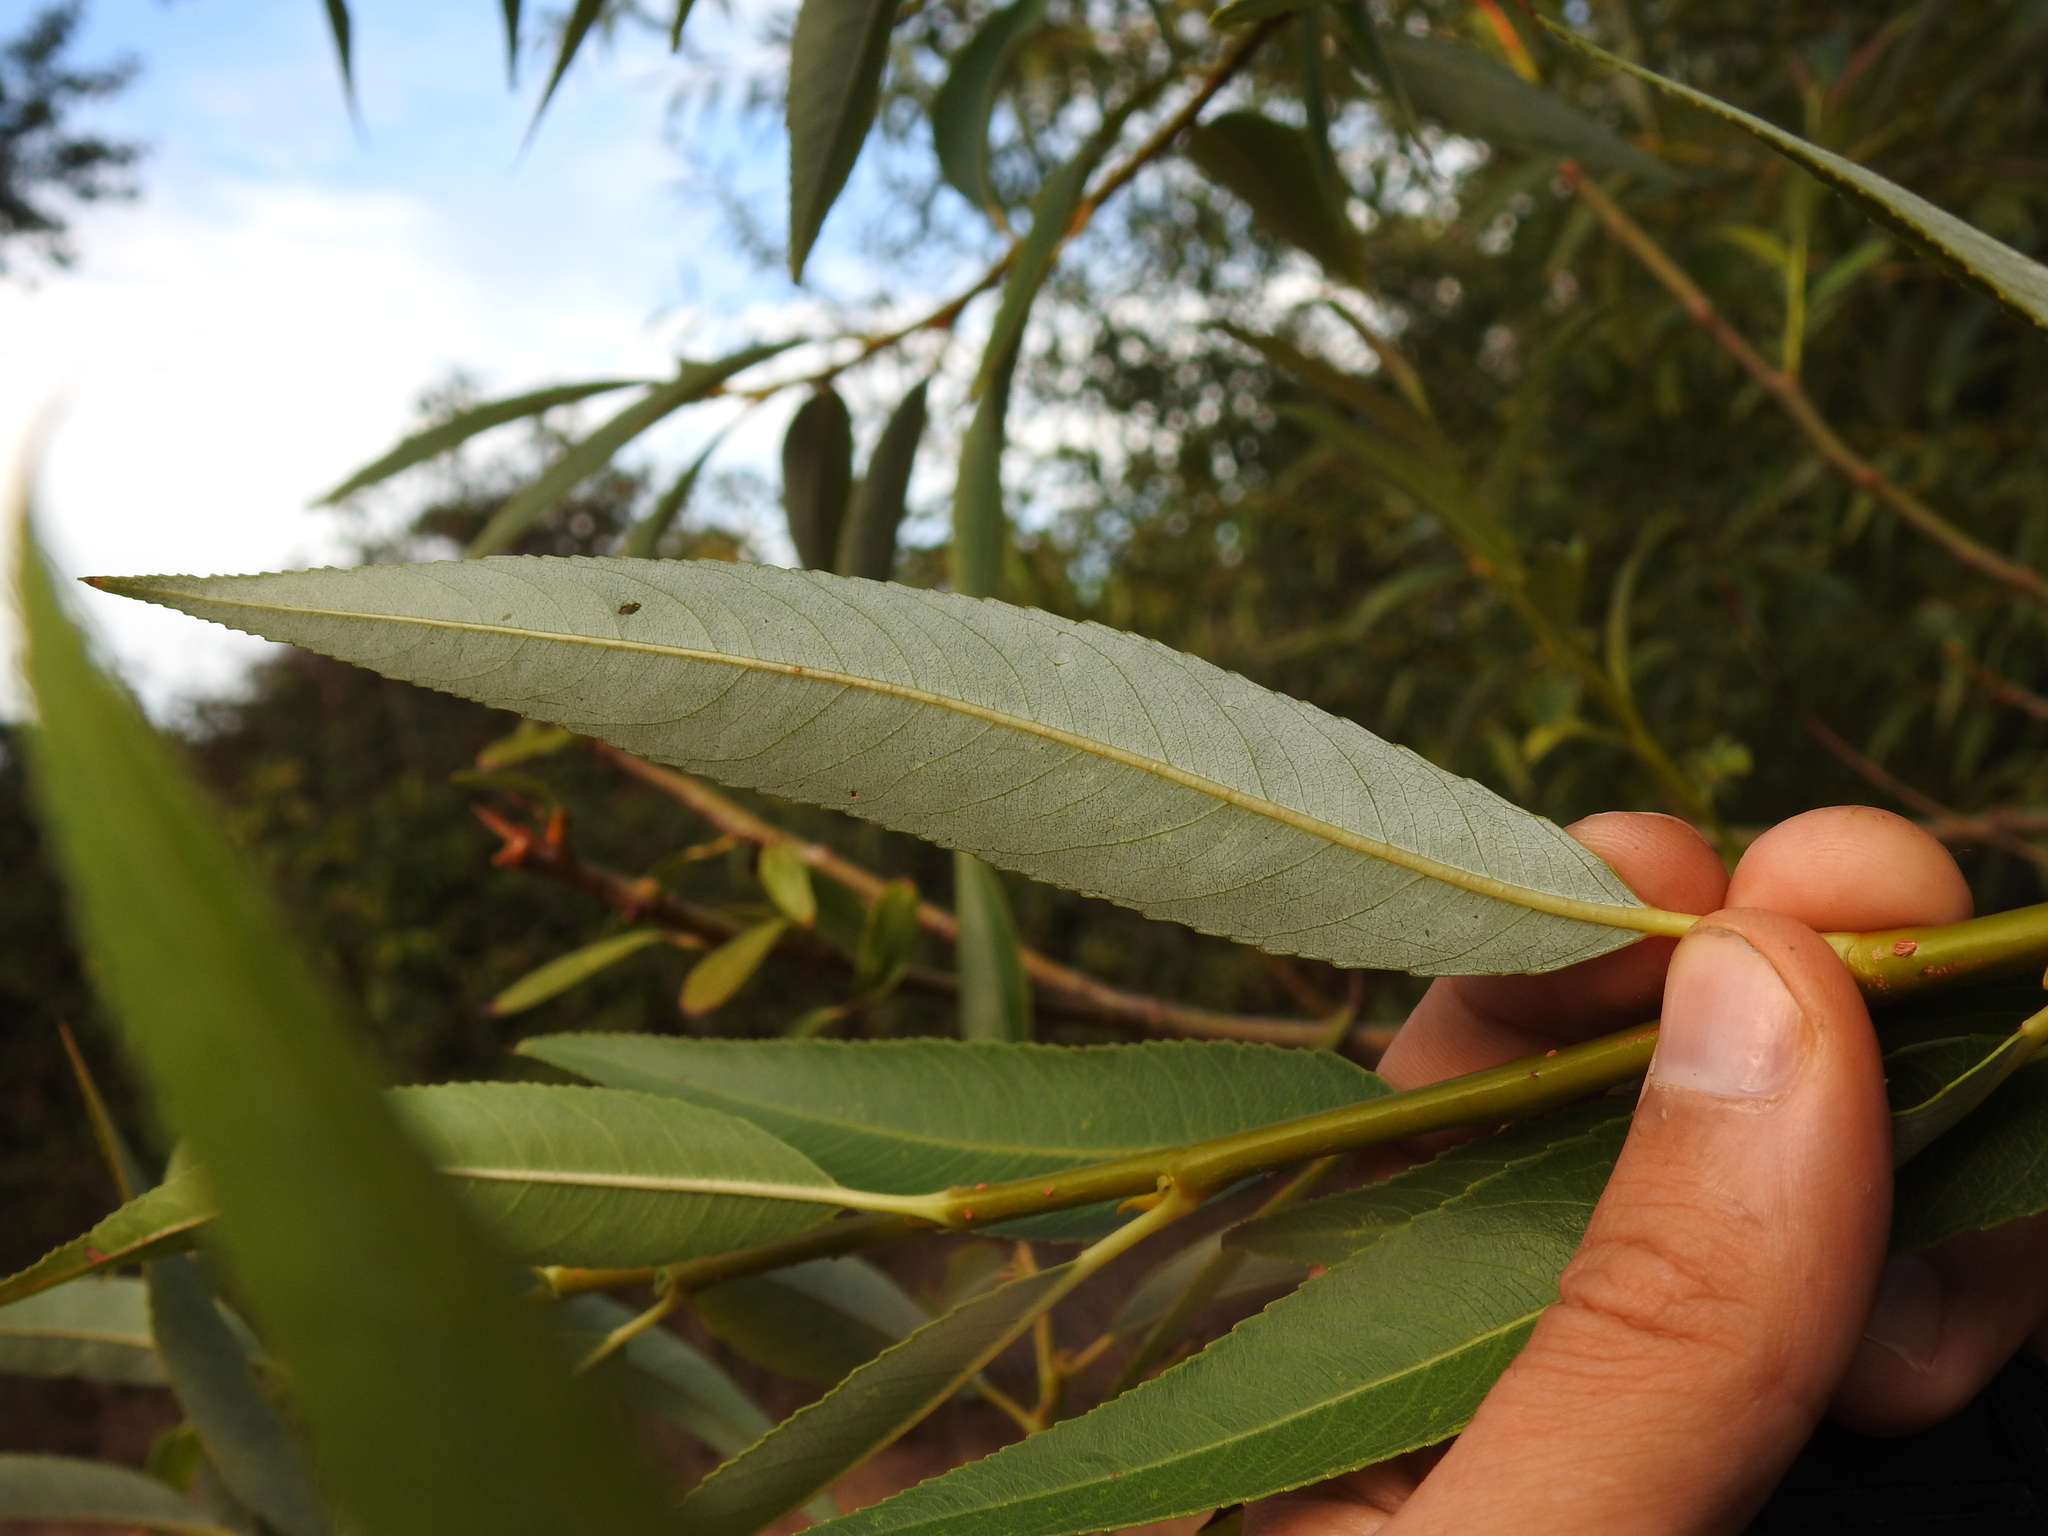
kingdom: Plantae
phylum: Tracheophyta
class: Magnoliopsida
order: Malpighiales
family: Salicaceae
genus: Salix
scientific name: Salix fragilis
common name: Crack willow
